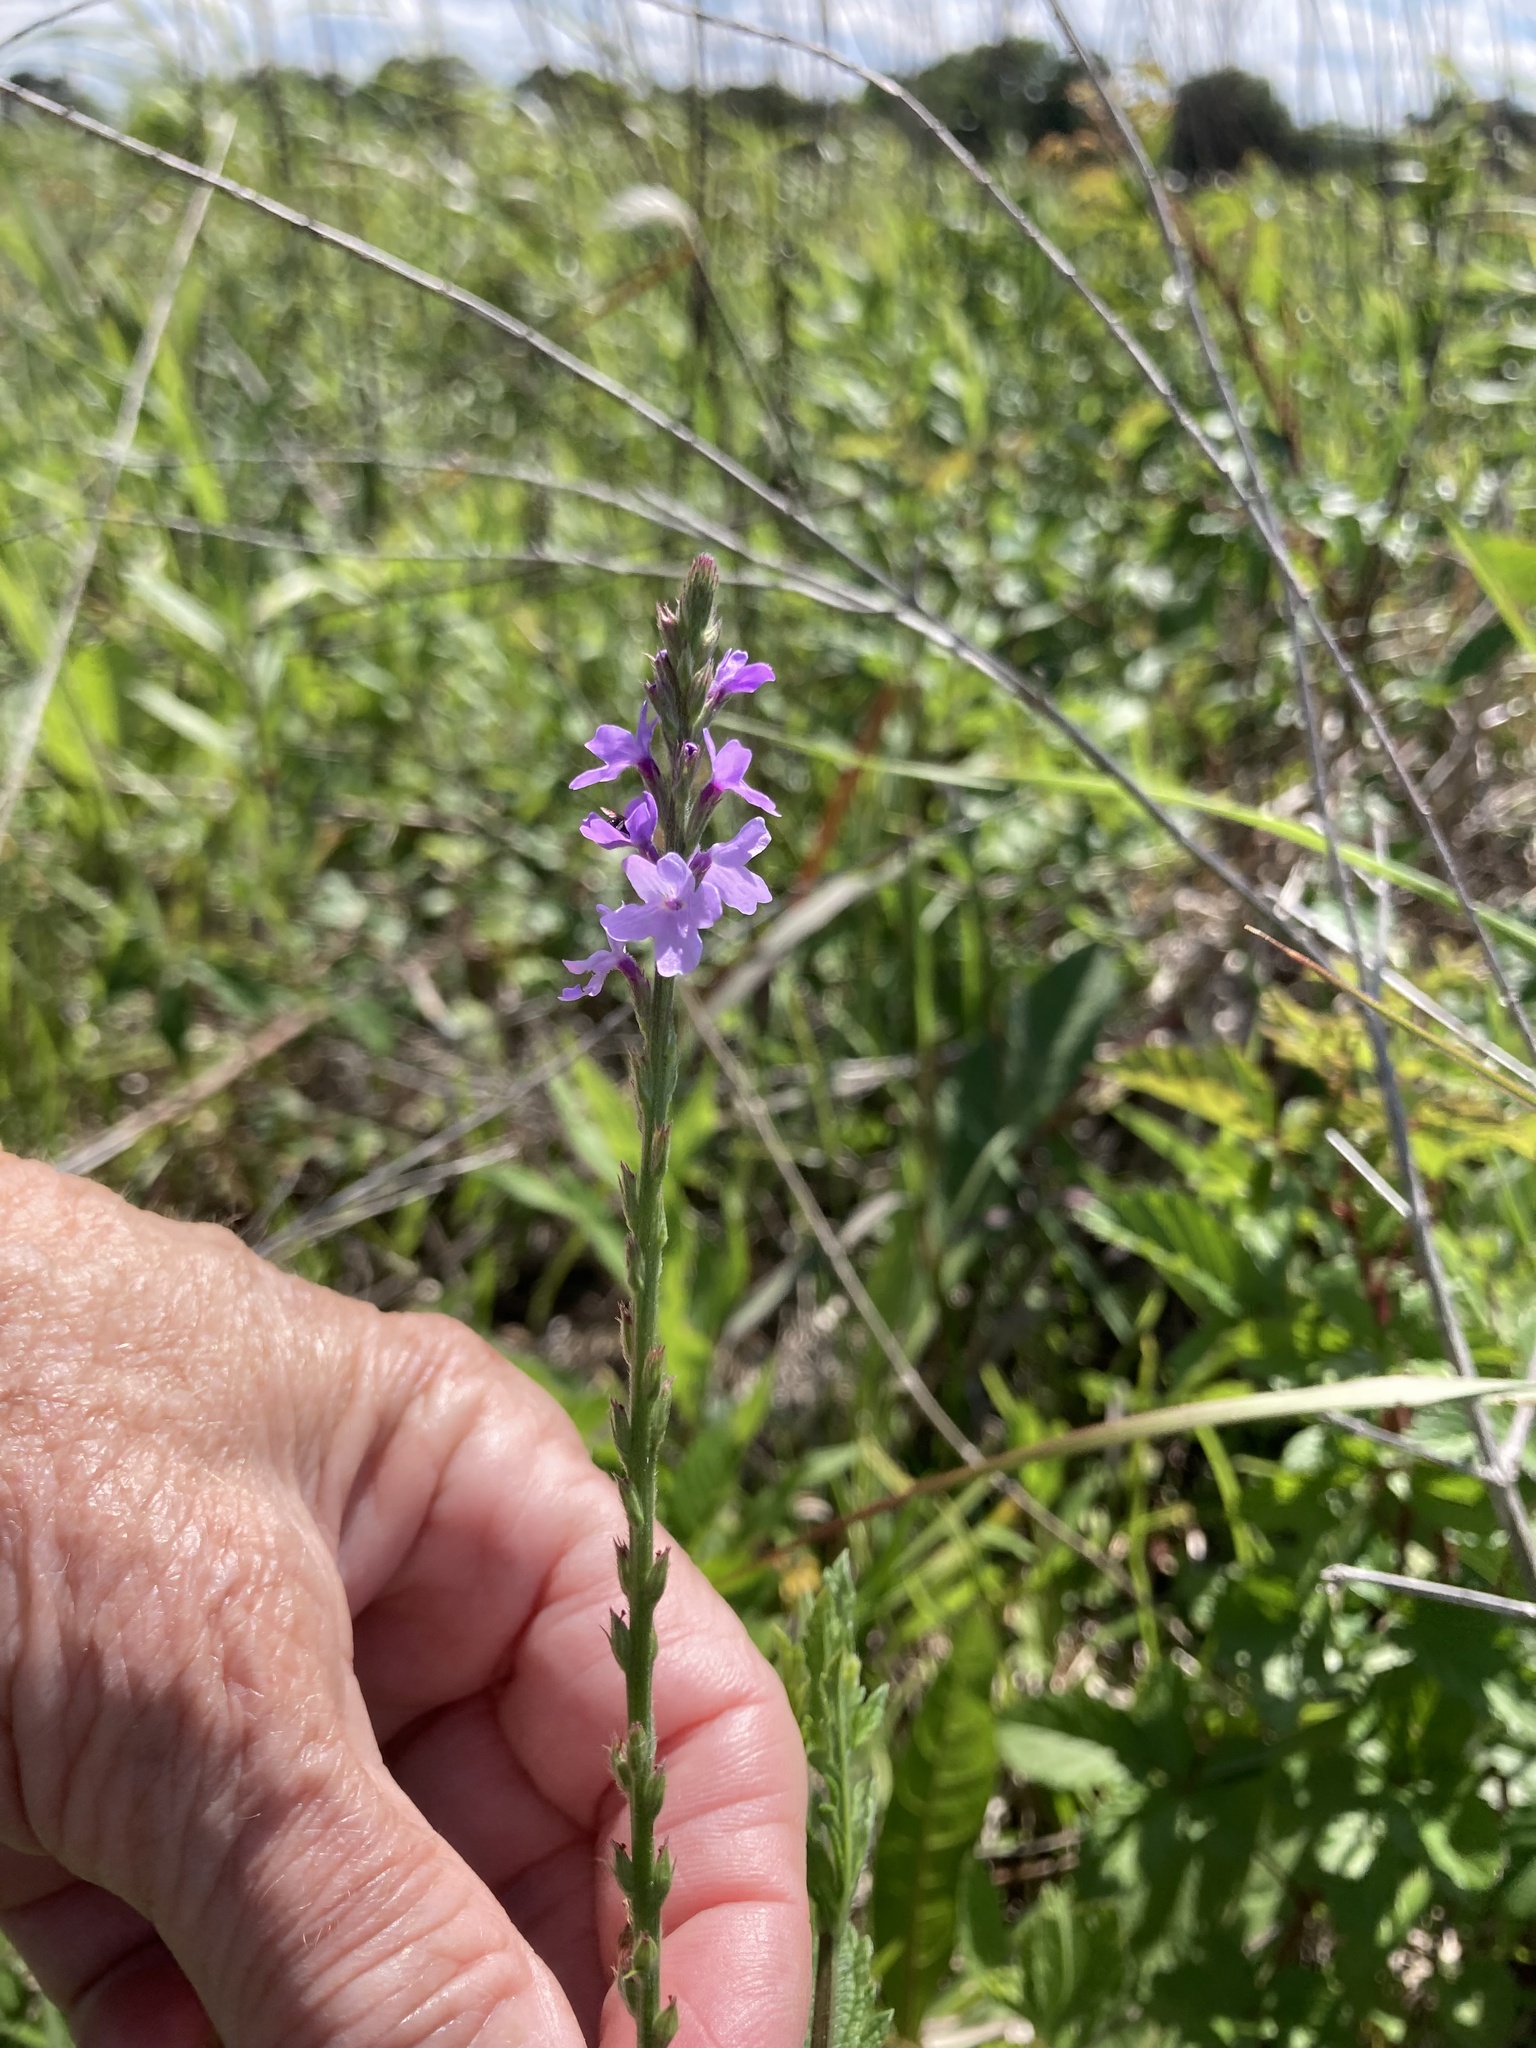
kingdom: Plantae
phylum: Tracheophyta
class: Magnoliopsida
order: Lamiales
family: Verbenaceae
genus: Verbena
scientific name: Verbena xutha
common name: Gulf vervain
